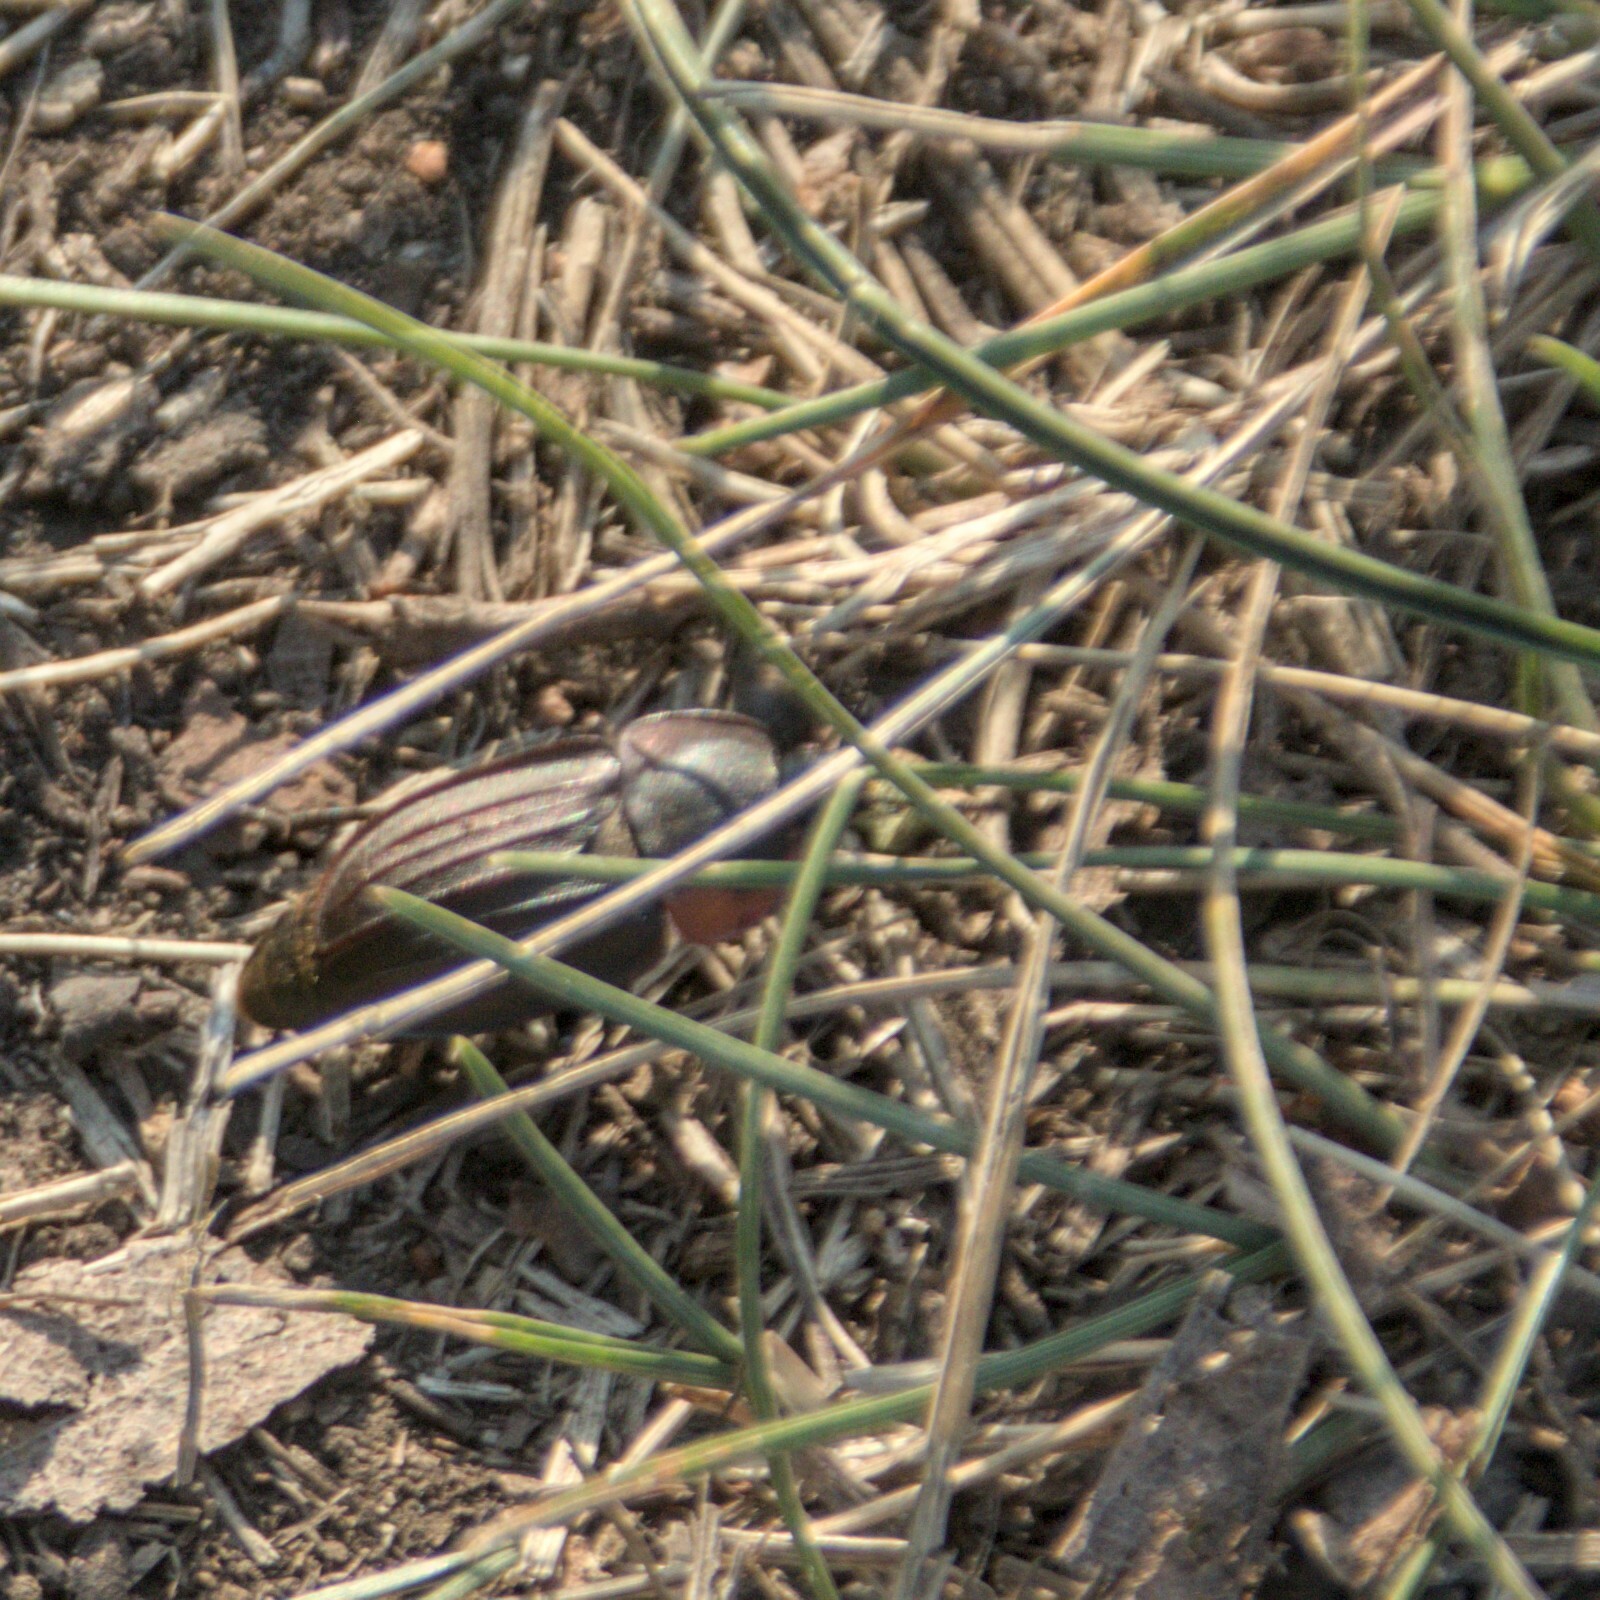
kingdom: Animalia
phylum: Arthropoda
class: Insecta
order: Coleoptera
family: Staphylinidae
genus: Silpha
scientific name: Silpha carinata
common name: Silphid beetle
